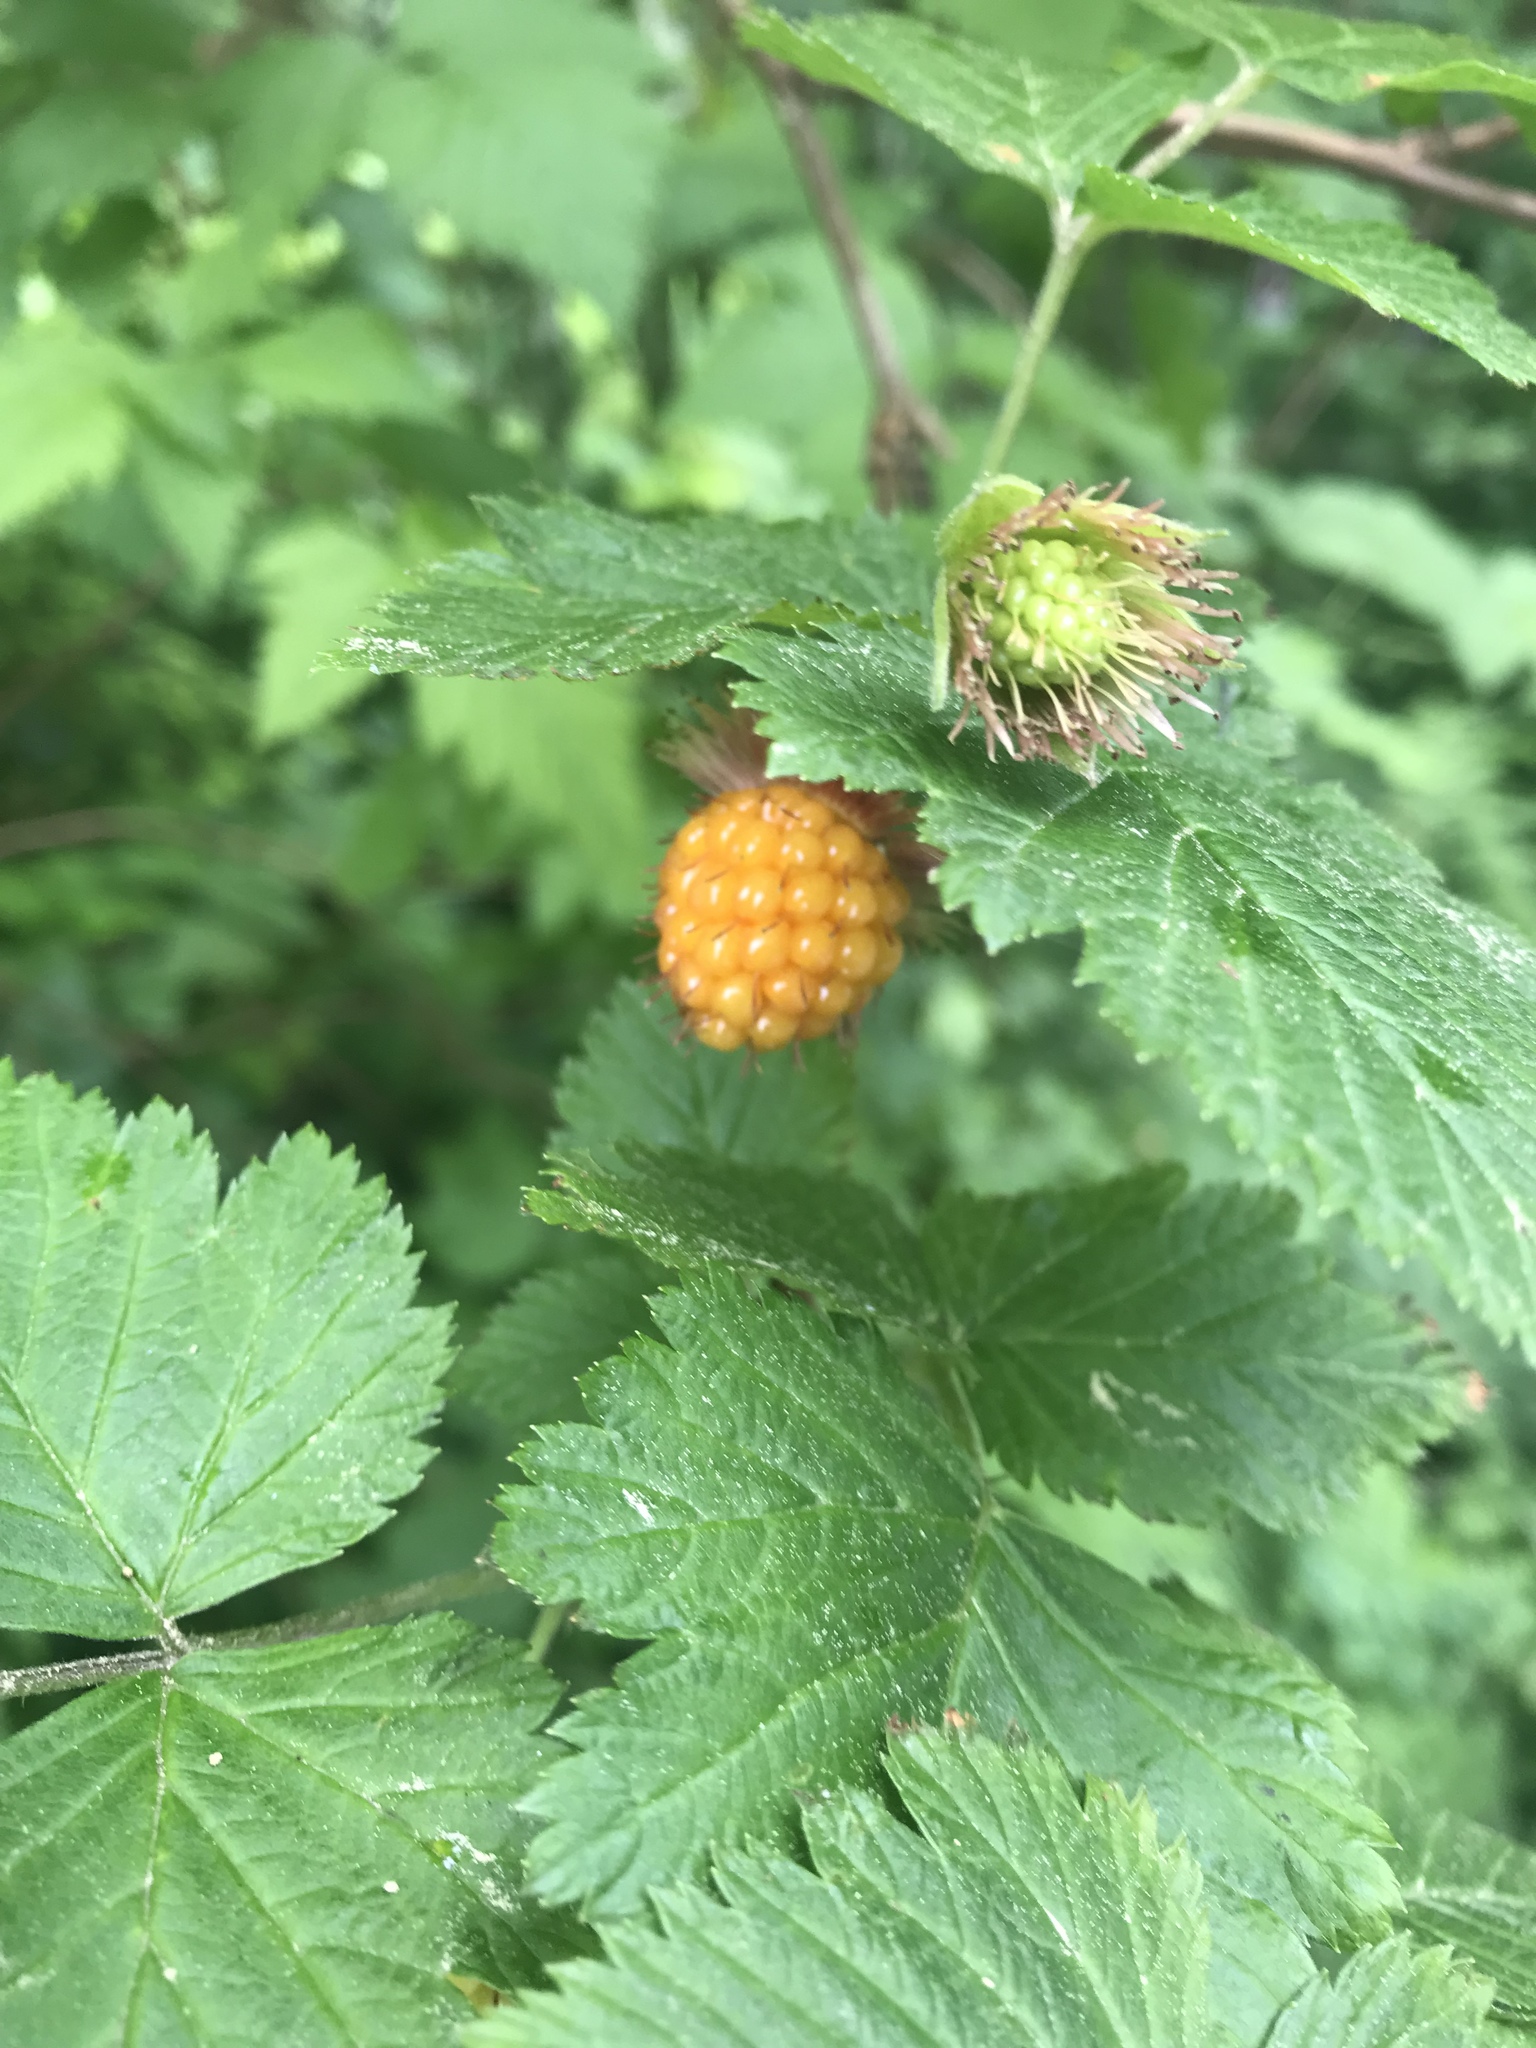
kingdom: Plantae
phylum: Tracheophyta
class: Magnoliopsida
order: Rosales
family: Rosaceae
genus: Rubus
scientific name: Rubus spectabilis
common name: Salmonberry
